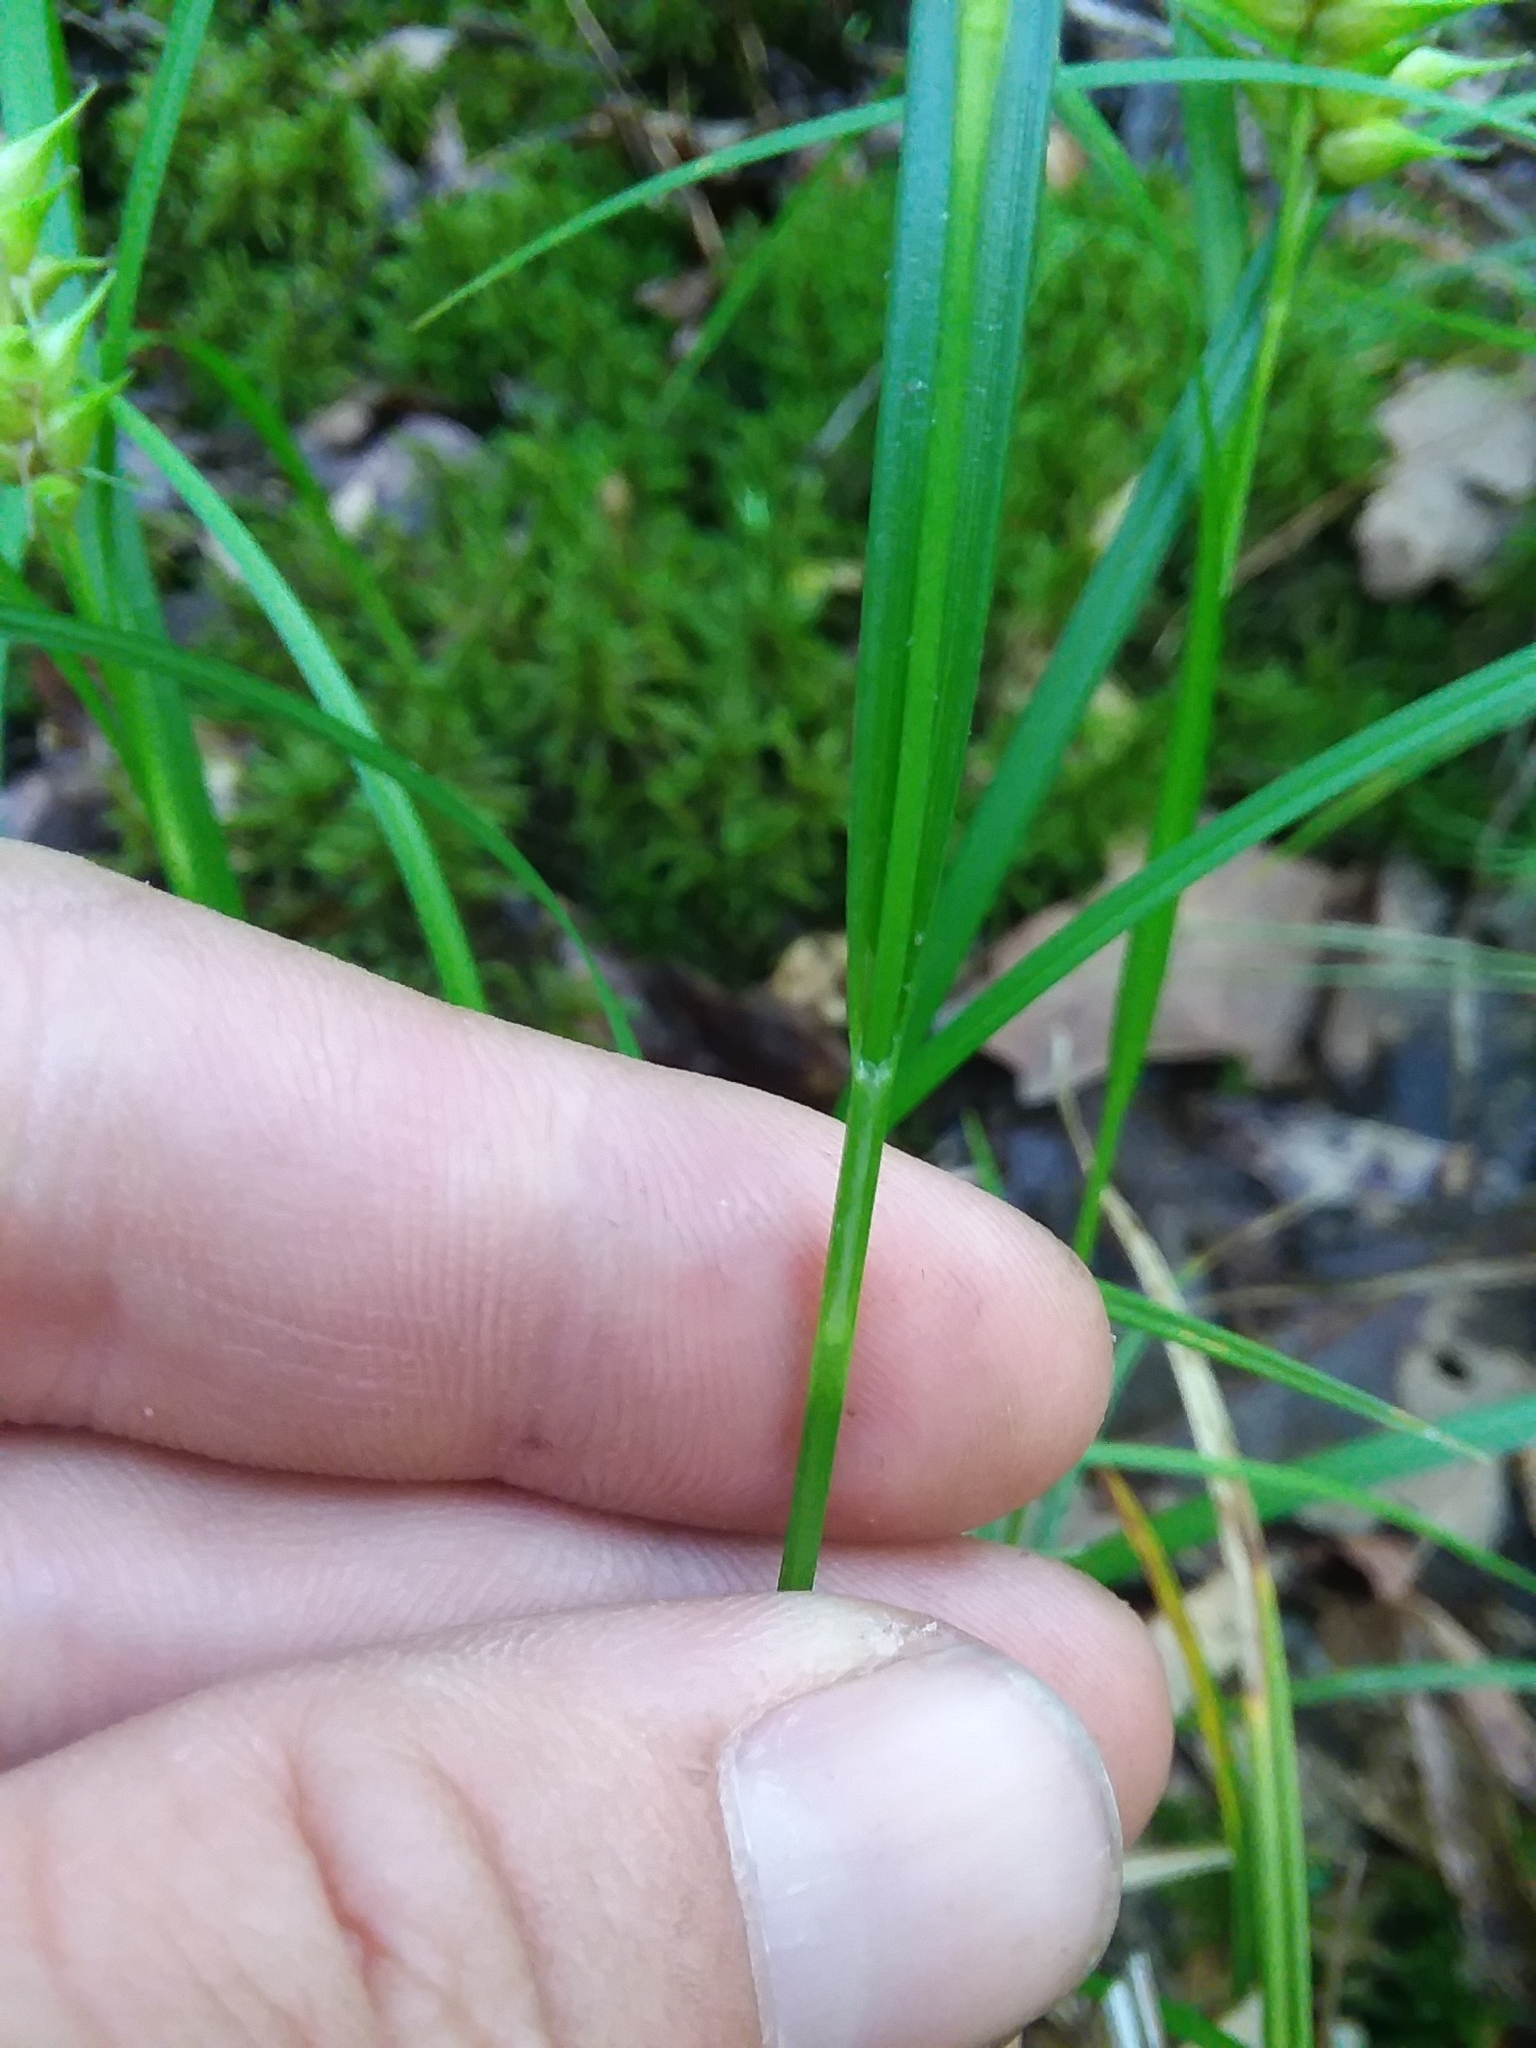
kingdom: Plantae
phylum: Tracheophyta
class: Liliopsida
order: Poales
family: Cyperaceae
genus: Carex
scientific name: Carex intumescens
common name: Greater bladder sedge
